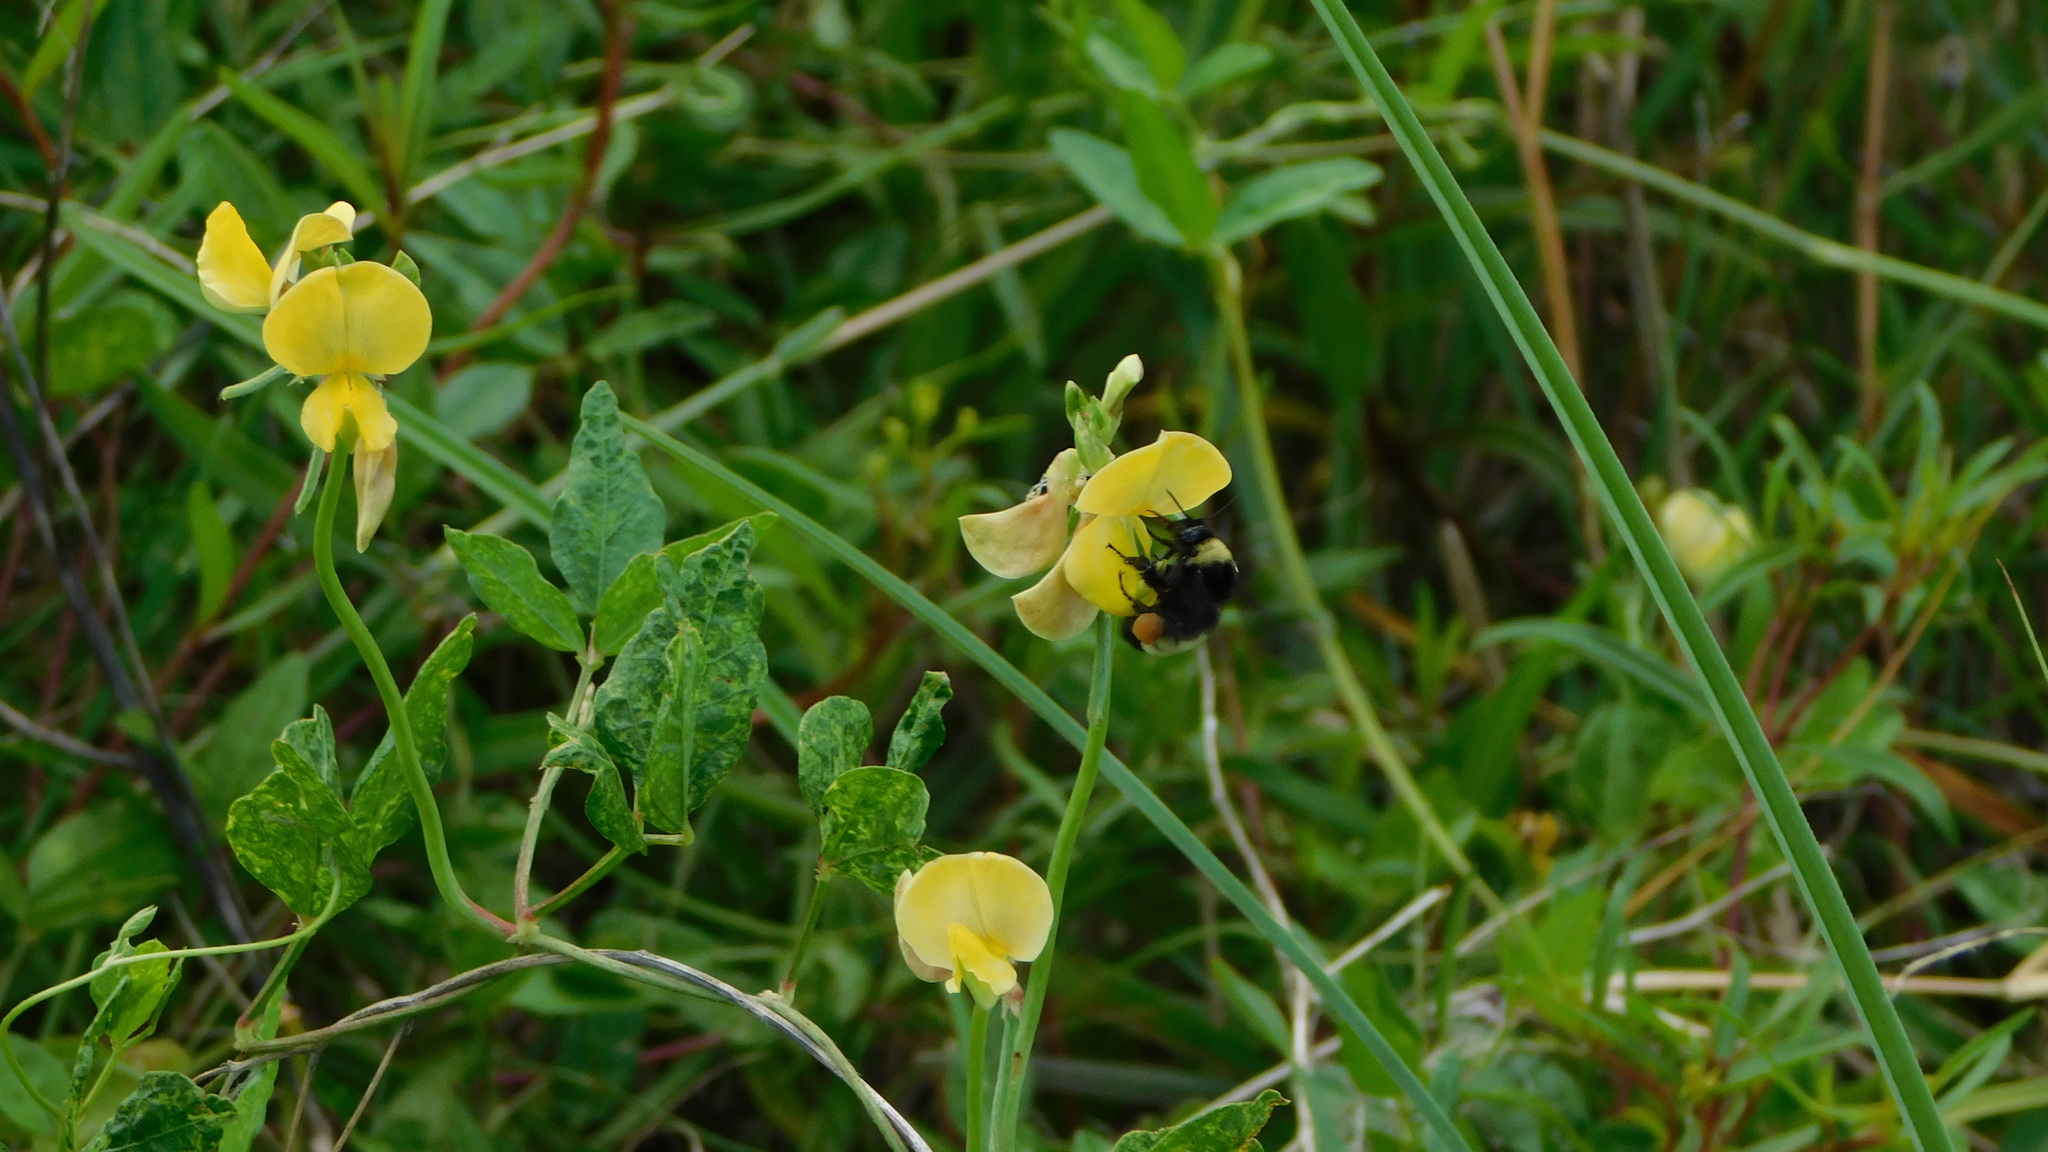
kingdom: Animalia
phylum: Arthropoda
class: Insecta
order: Hymenoptera
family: Apidae
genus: Bombus
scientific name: Bombus pensylvanicus
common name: Bumble bee
